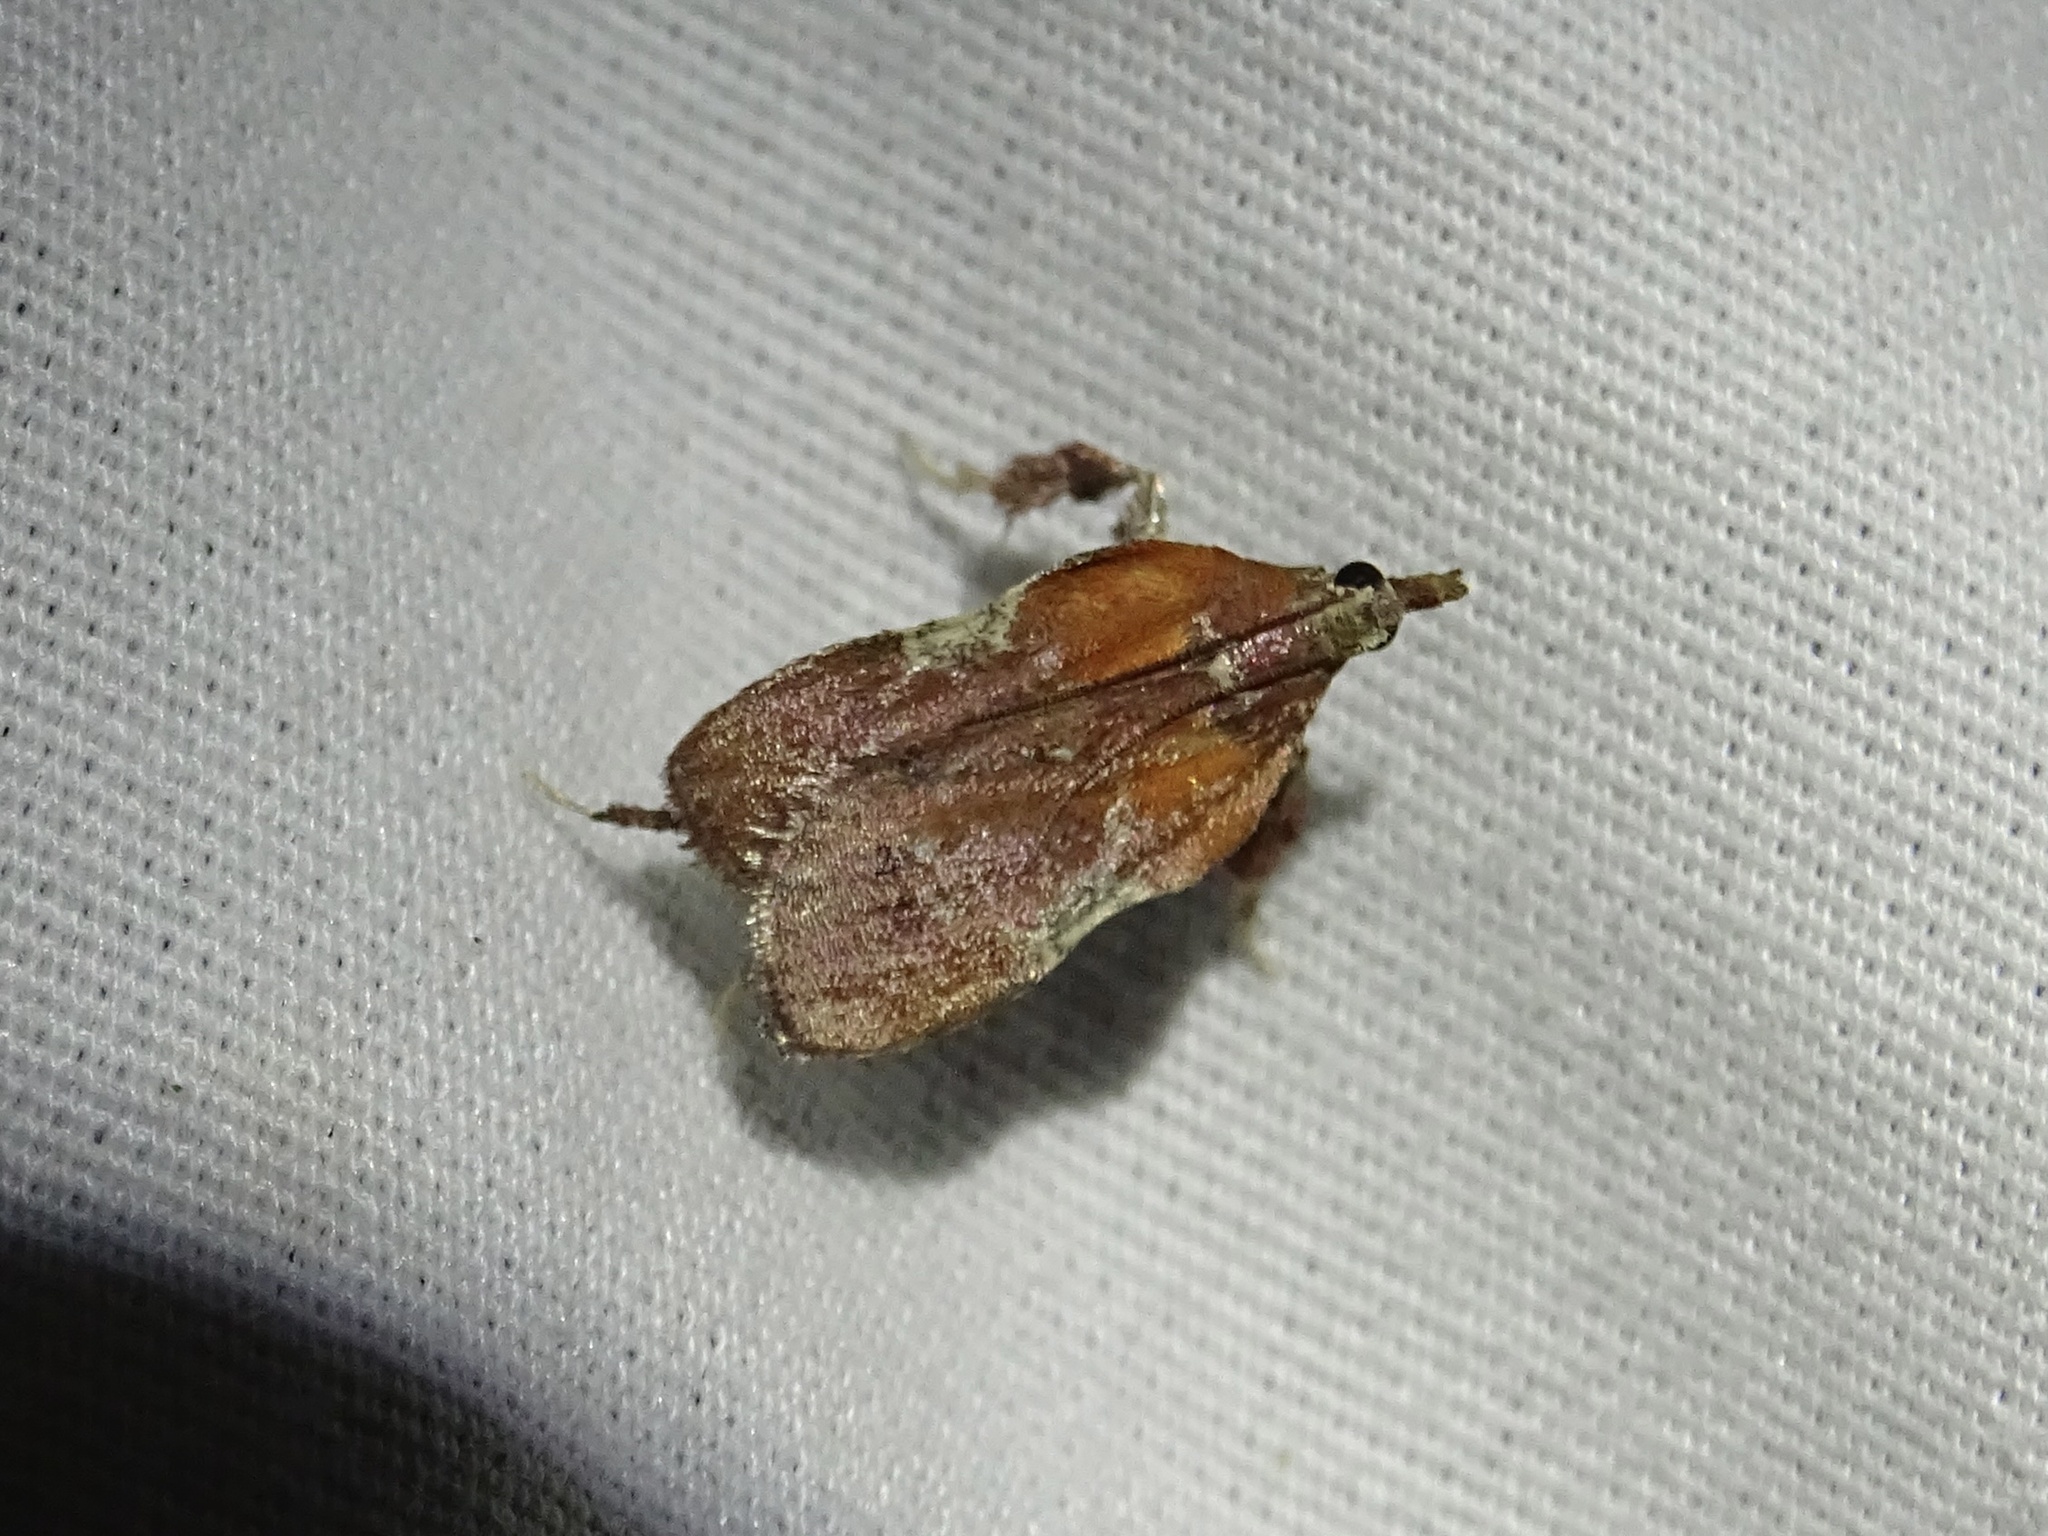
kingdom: Animalia
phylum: Arthropoda
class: Insecta
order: Lepidoptera
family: Pyralidae
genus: Galasa
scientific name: Galasa nigrinodis
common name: Boxwood leaftier moth
